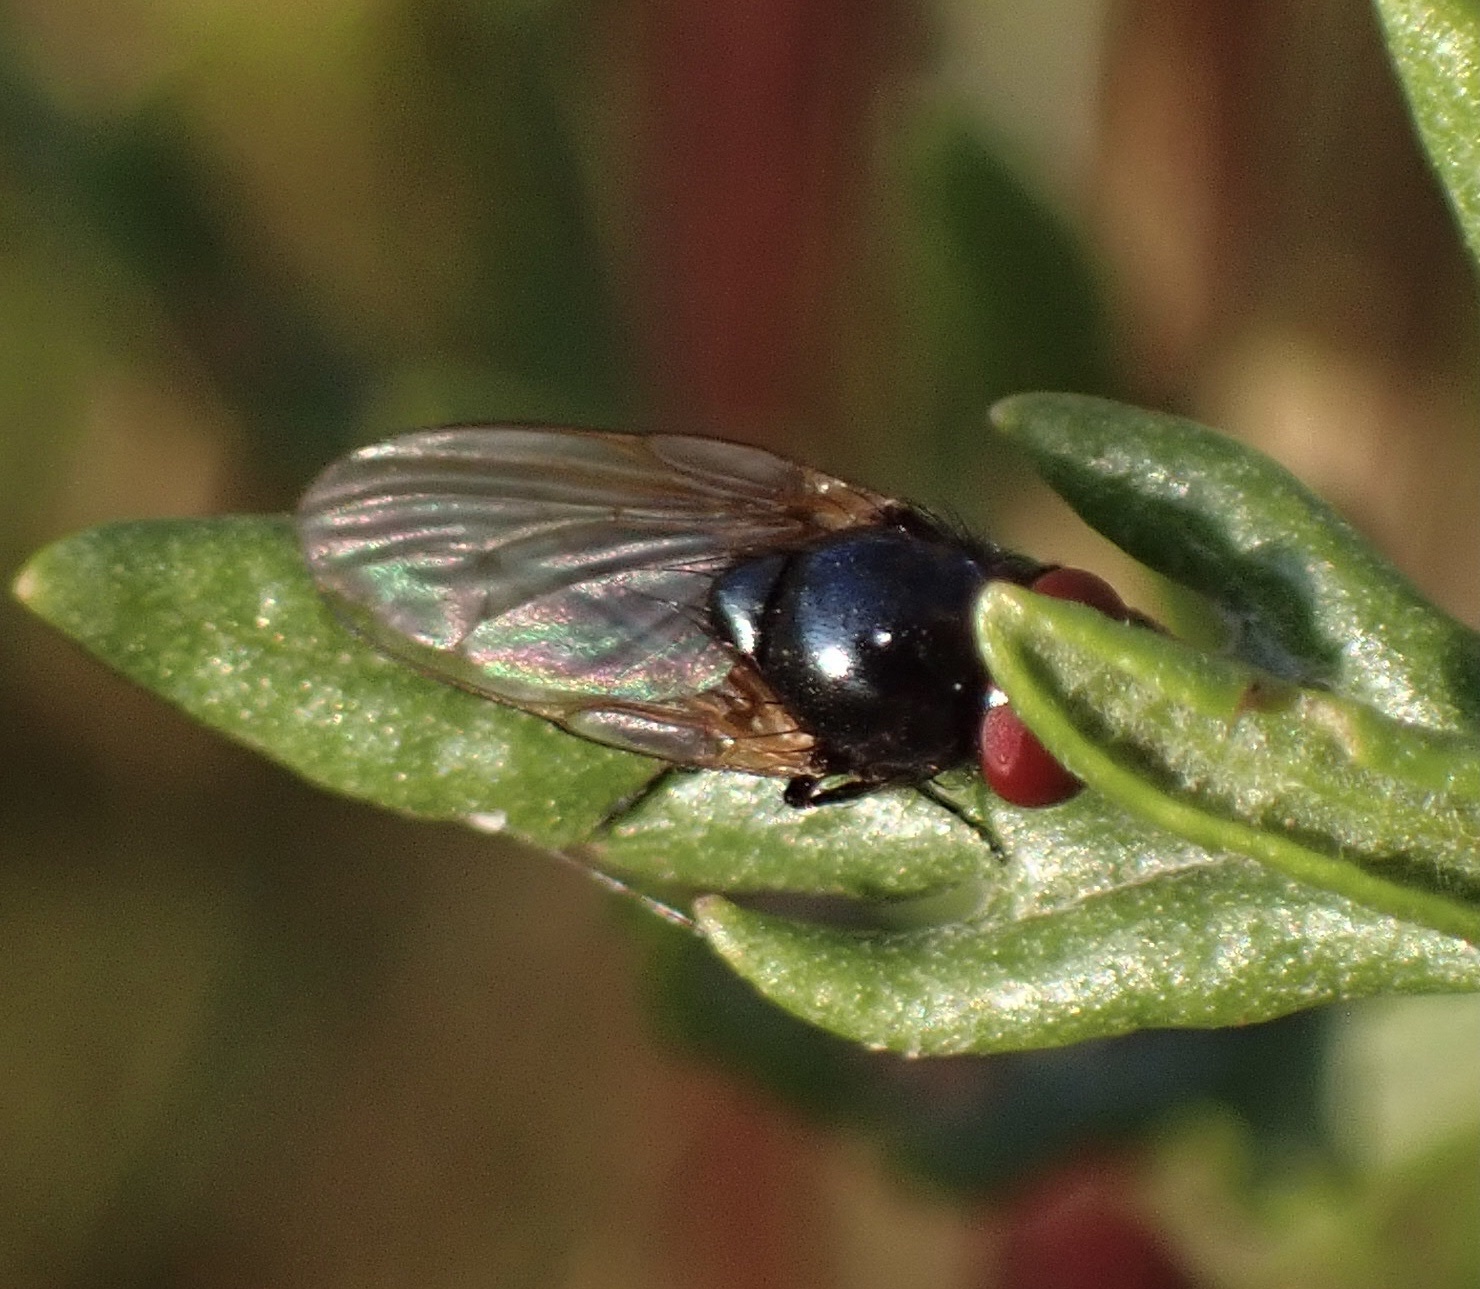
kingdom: Animalia
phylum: Arthropoda
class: Insecta
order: Diptera
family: Lonchaeidae
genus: Silba
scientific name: Silba fumosa
